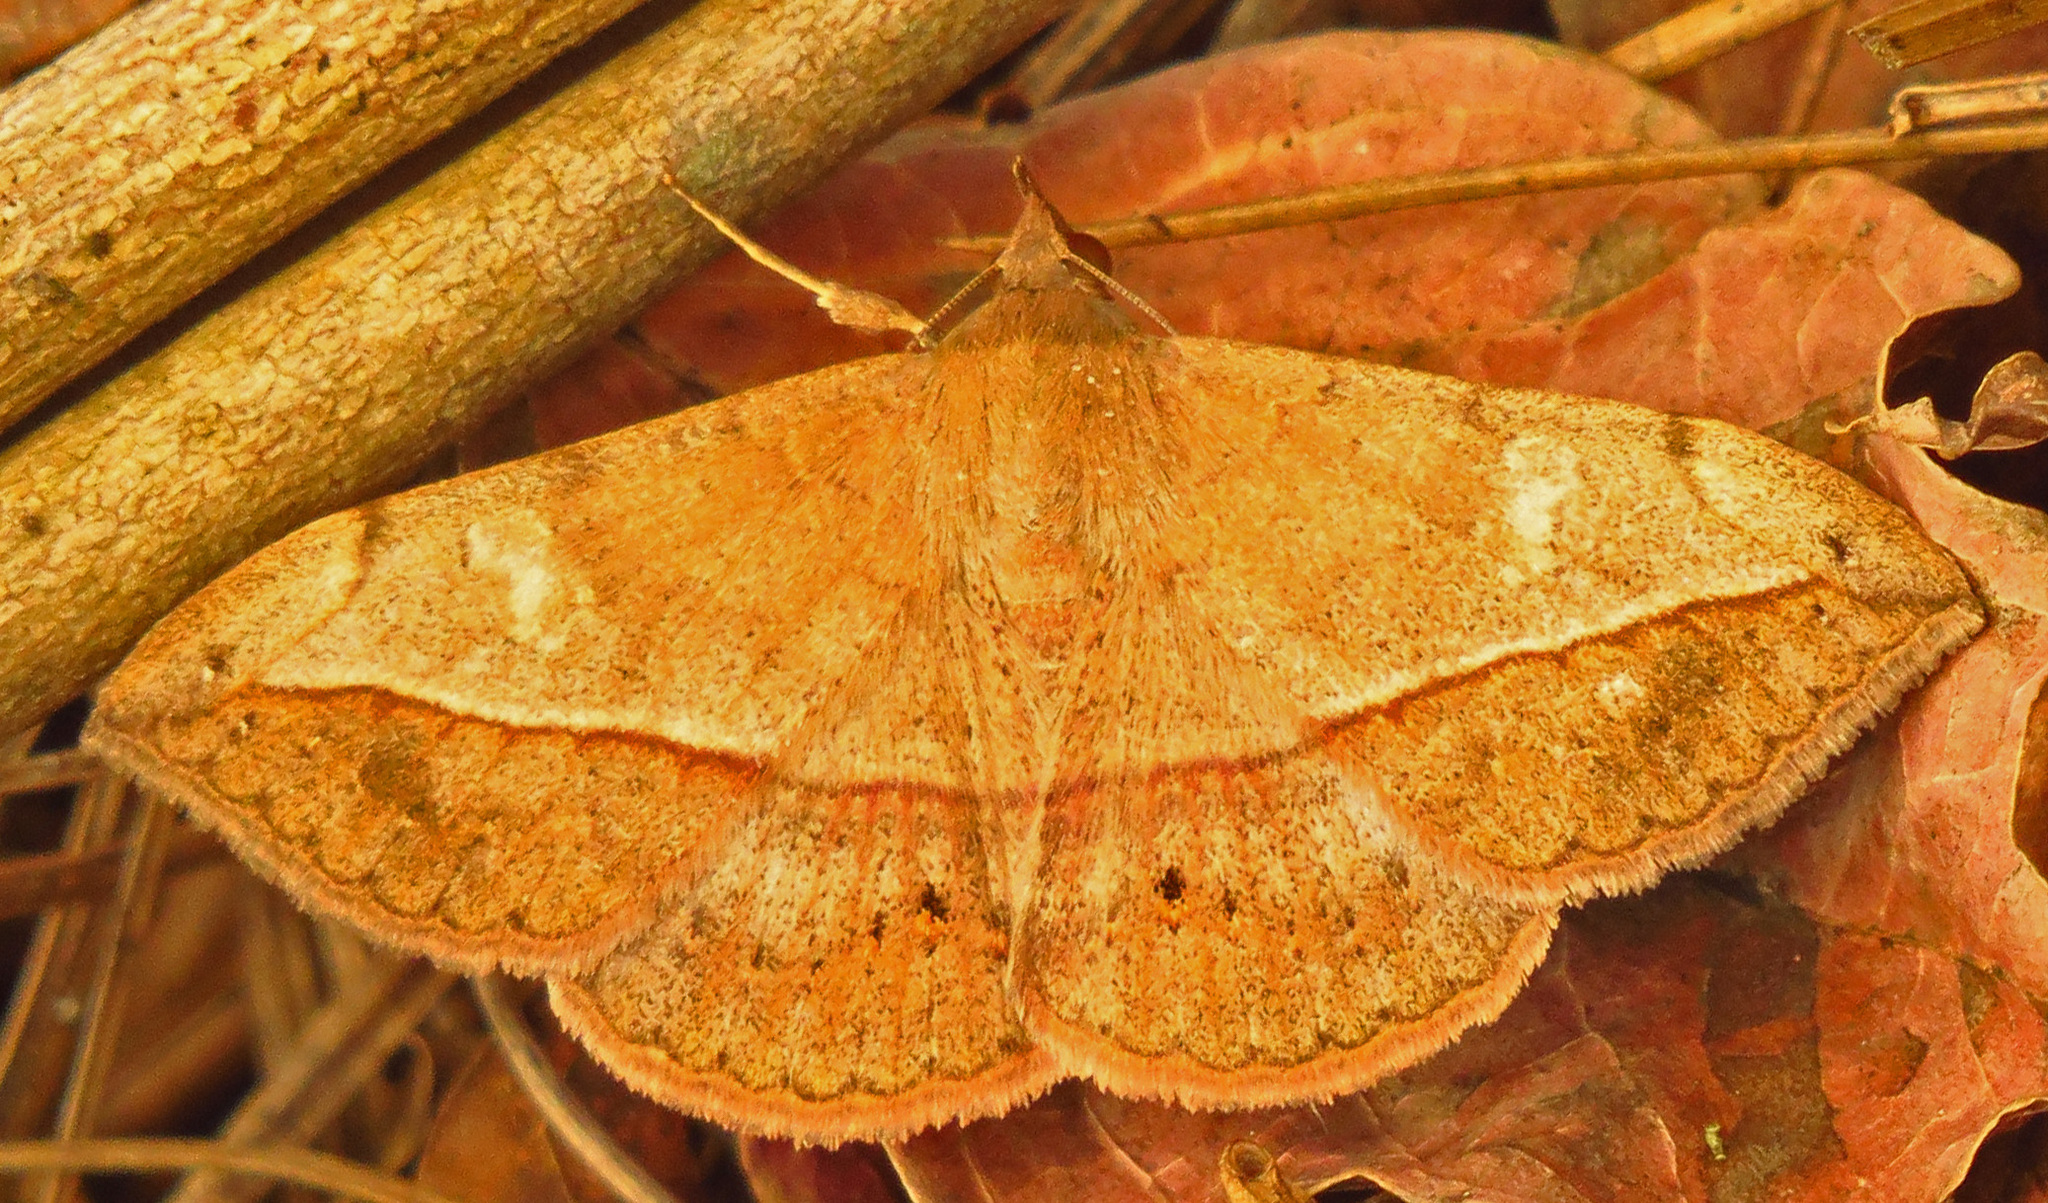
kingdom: Animalia
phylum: Arthropoda
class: Insecta
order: Lepidoptera
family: Erebidae
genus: Anticarsia
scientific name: Anticarsia gemmatalis
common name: Cutworm moth
